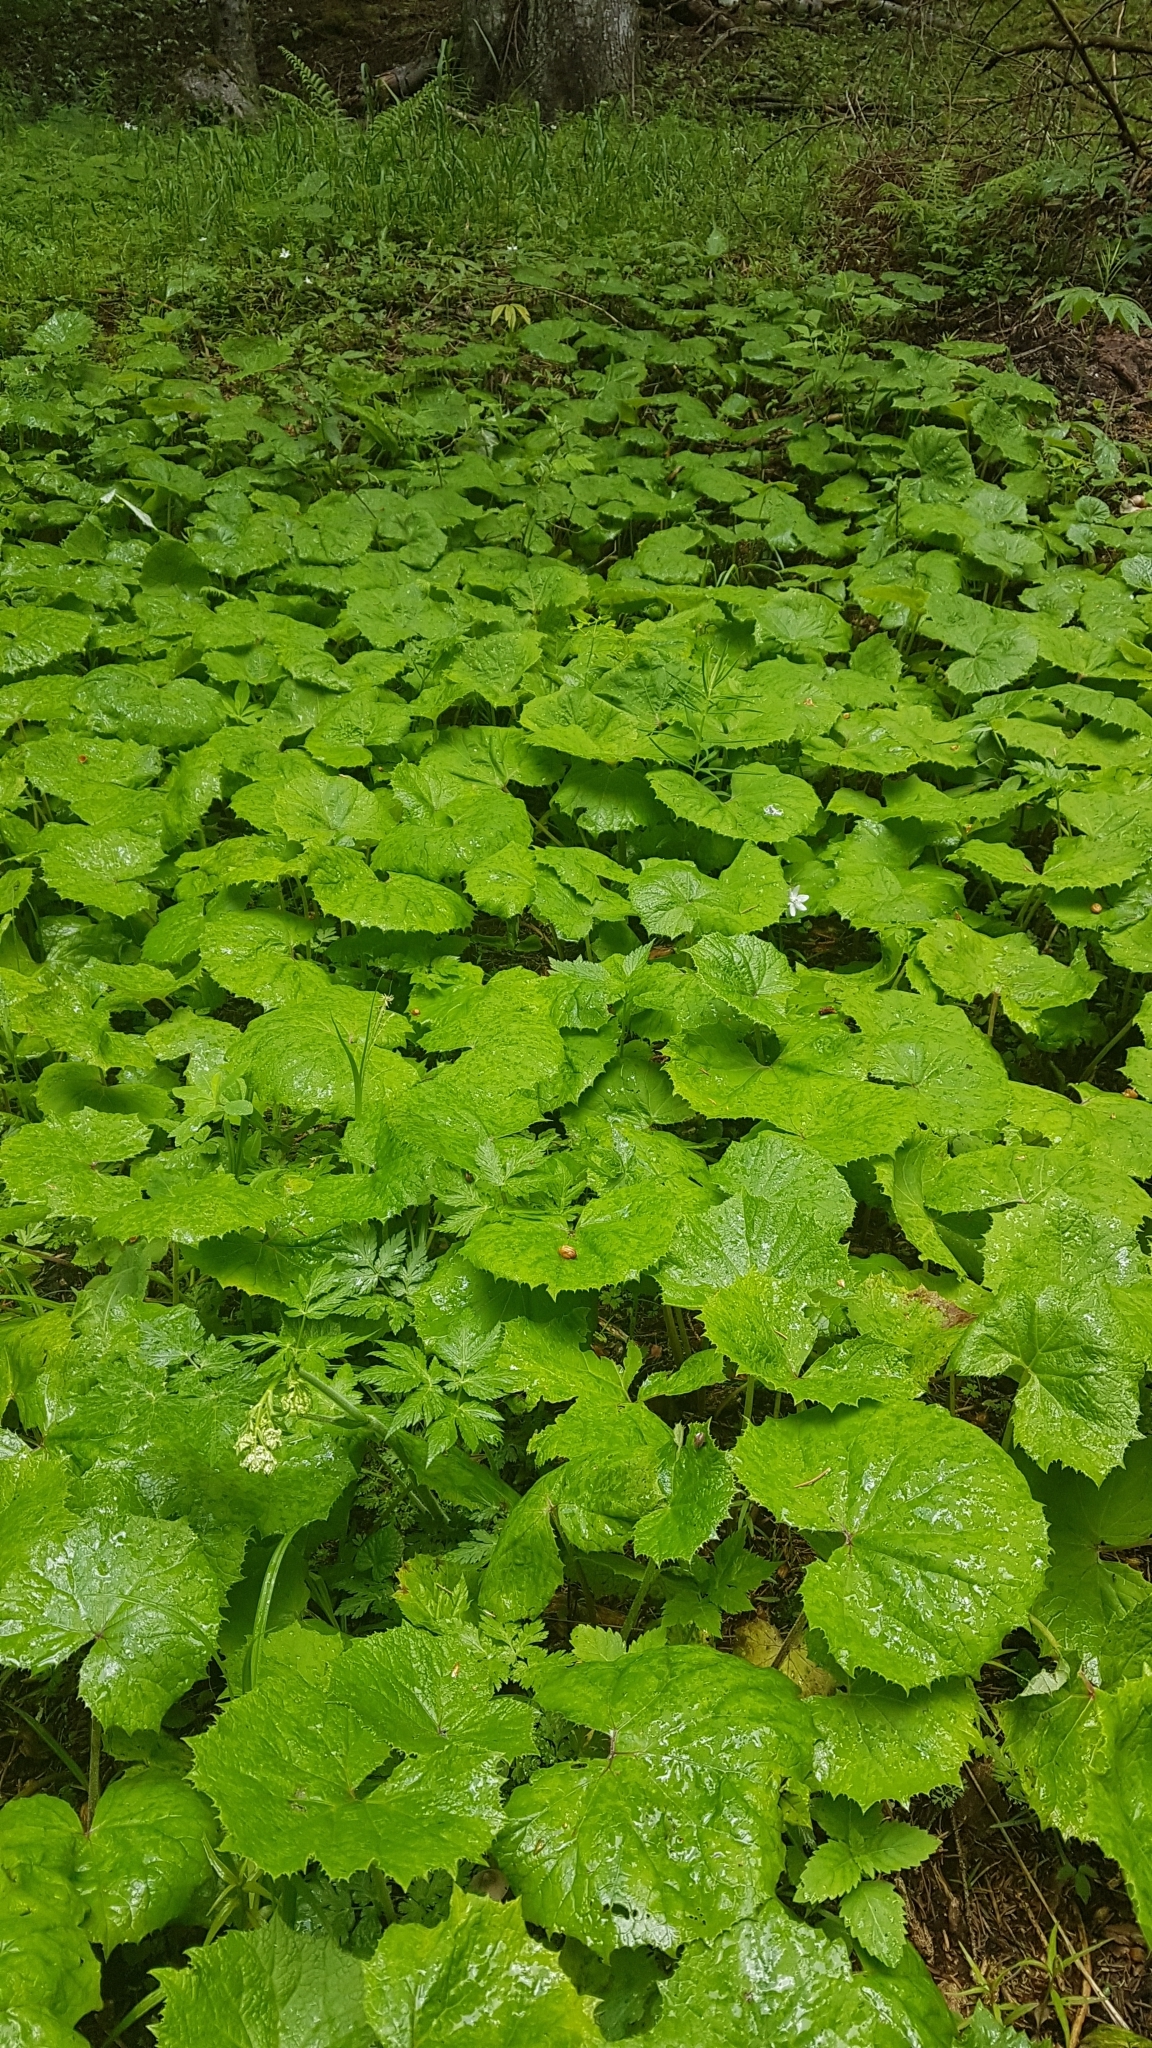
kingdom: Plantae
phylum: Tracheophyta
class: Magnoliopsida
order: Asterales
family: Asteraceae
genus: Petasites
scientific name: Petasites albus
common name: White butterbur
